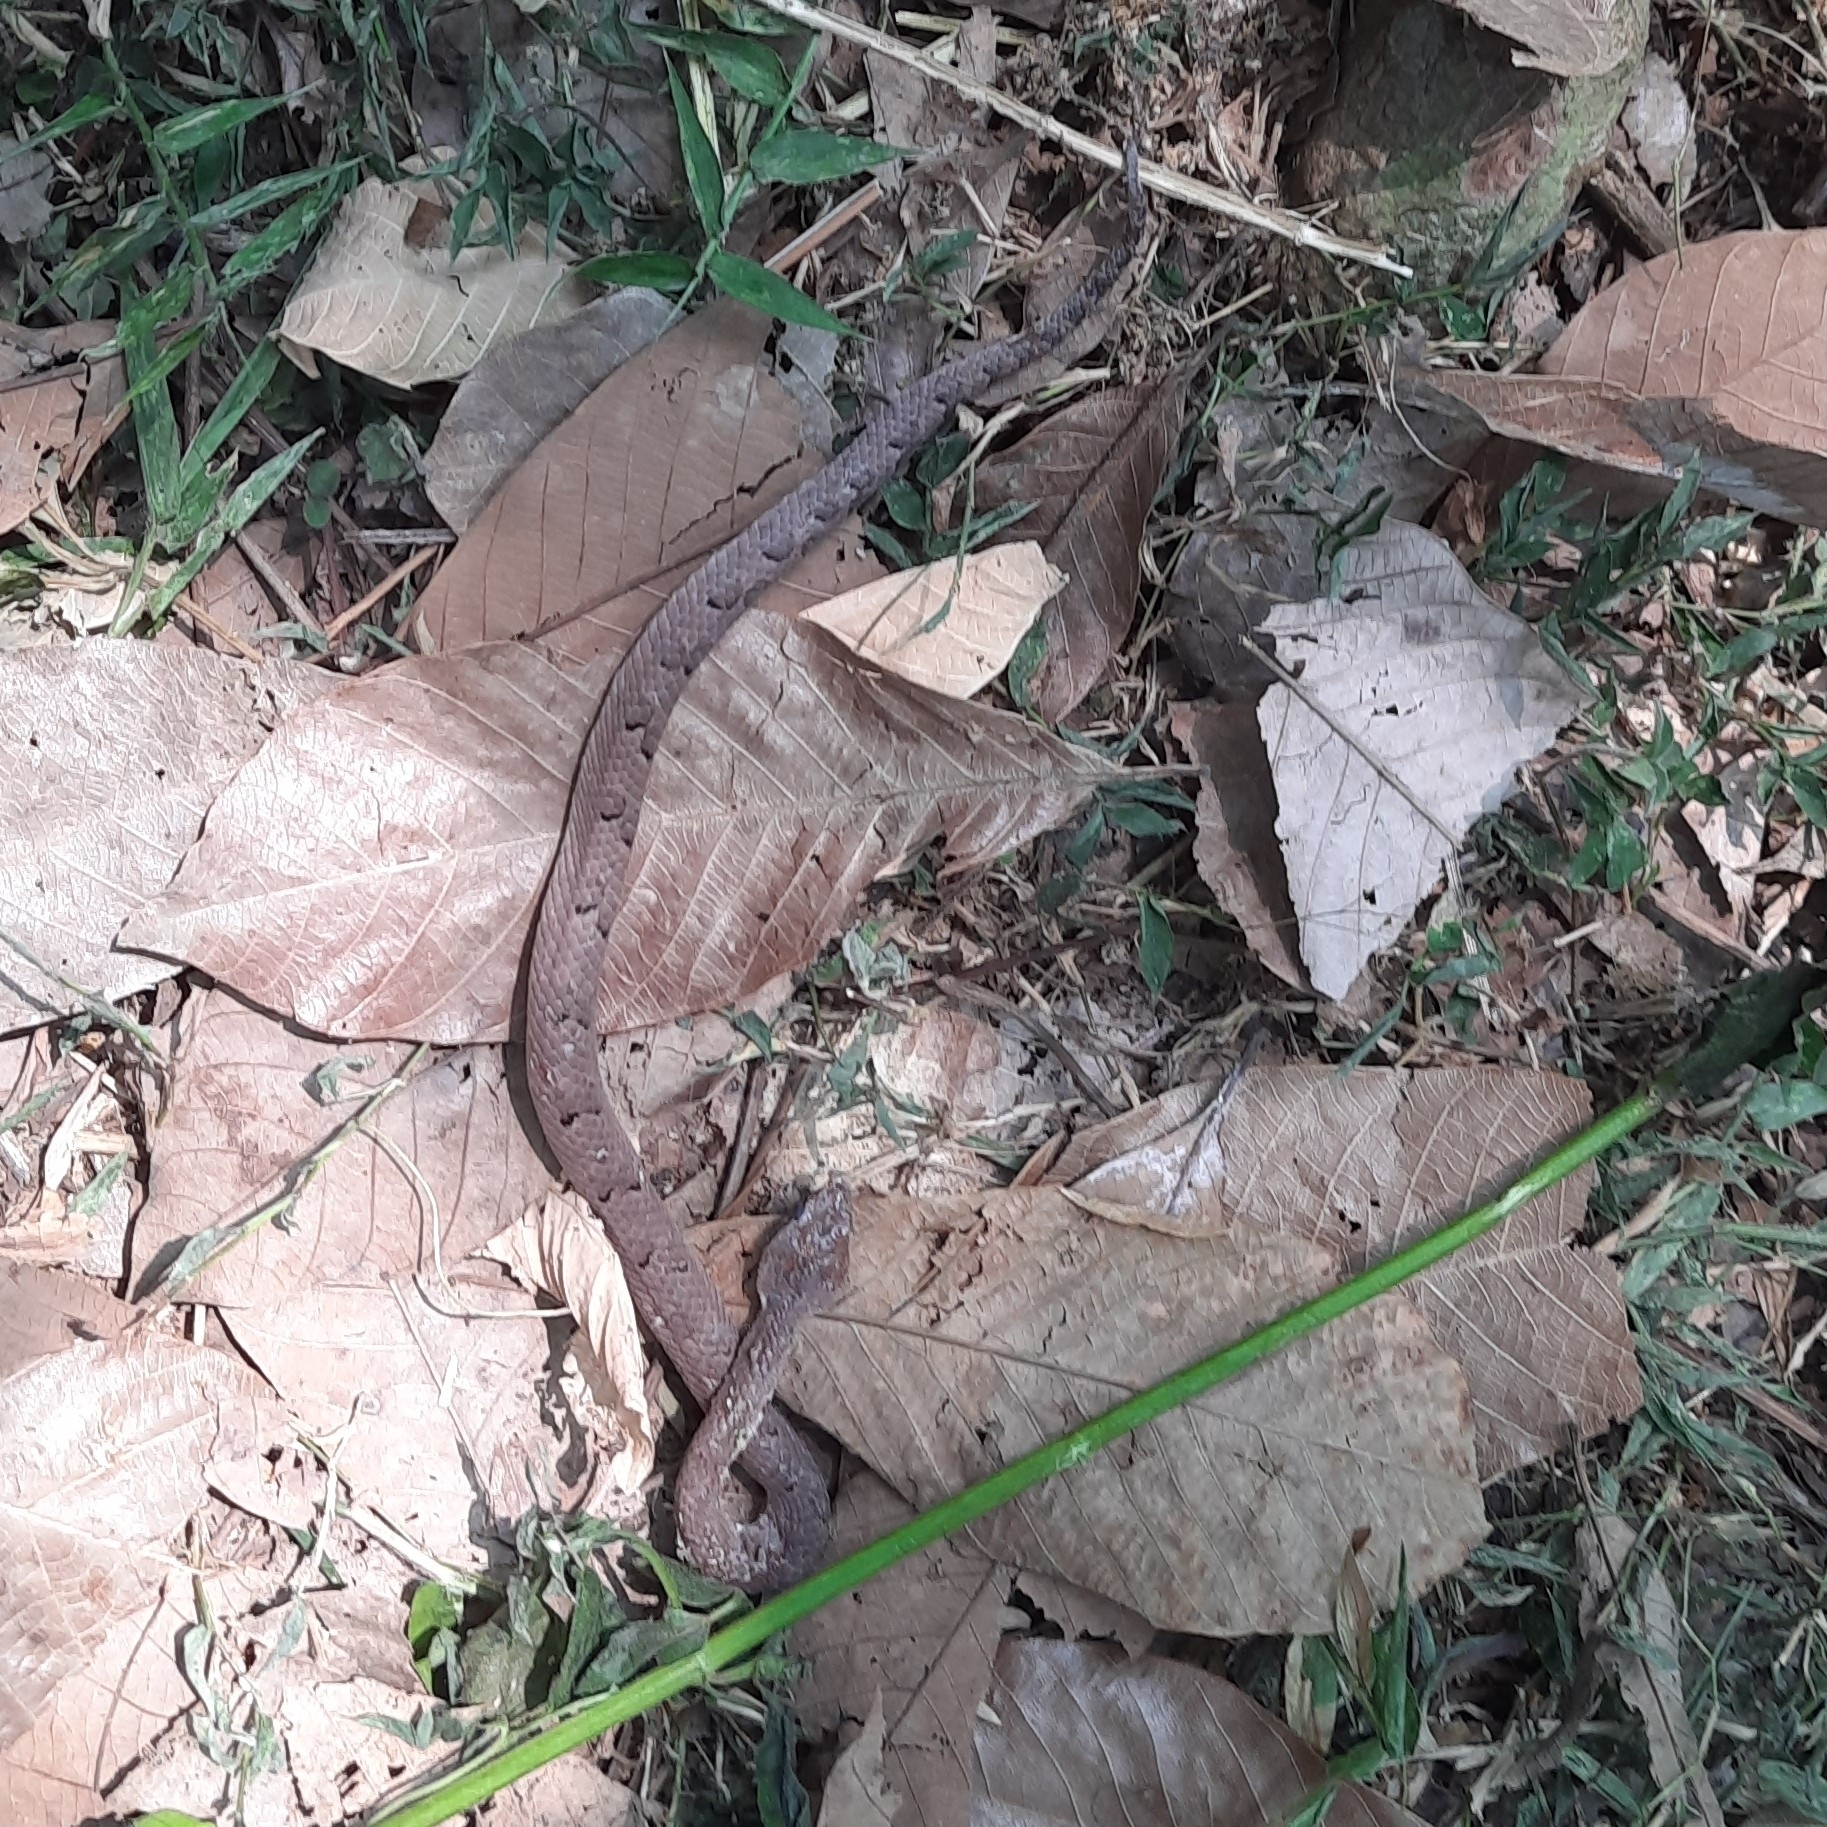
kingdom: Animalia
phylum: Chordata
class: Squamata
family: Viperidae
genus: Hypnale
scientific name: Hypnale hypnale
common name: Hump-nosed moccasin
